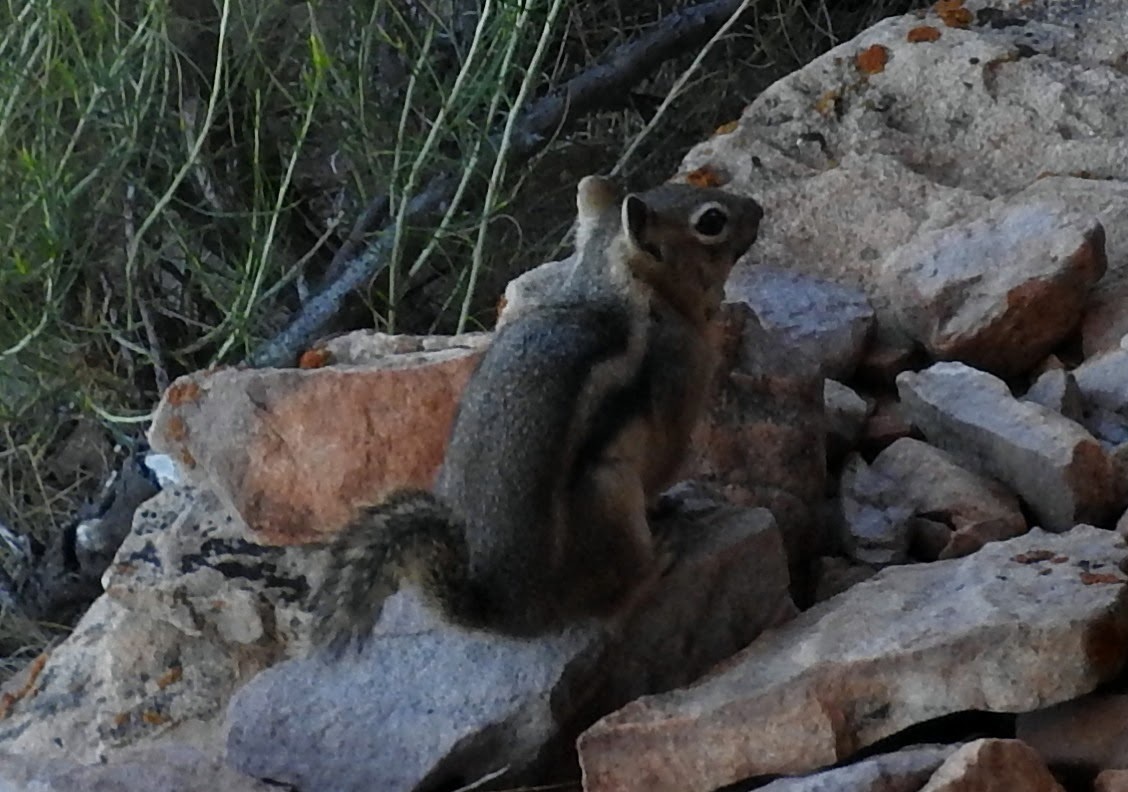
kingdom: Animalia
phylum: Chordata
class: Mammalia
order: Rodentia
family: Sciuridae
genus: Callospermophilus
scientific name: Callospermophilus lateralis
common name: Golden-mantled ground squirrel
